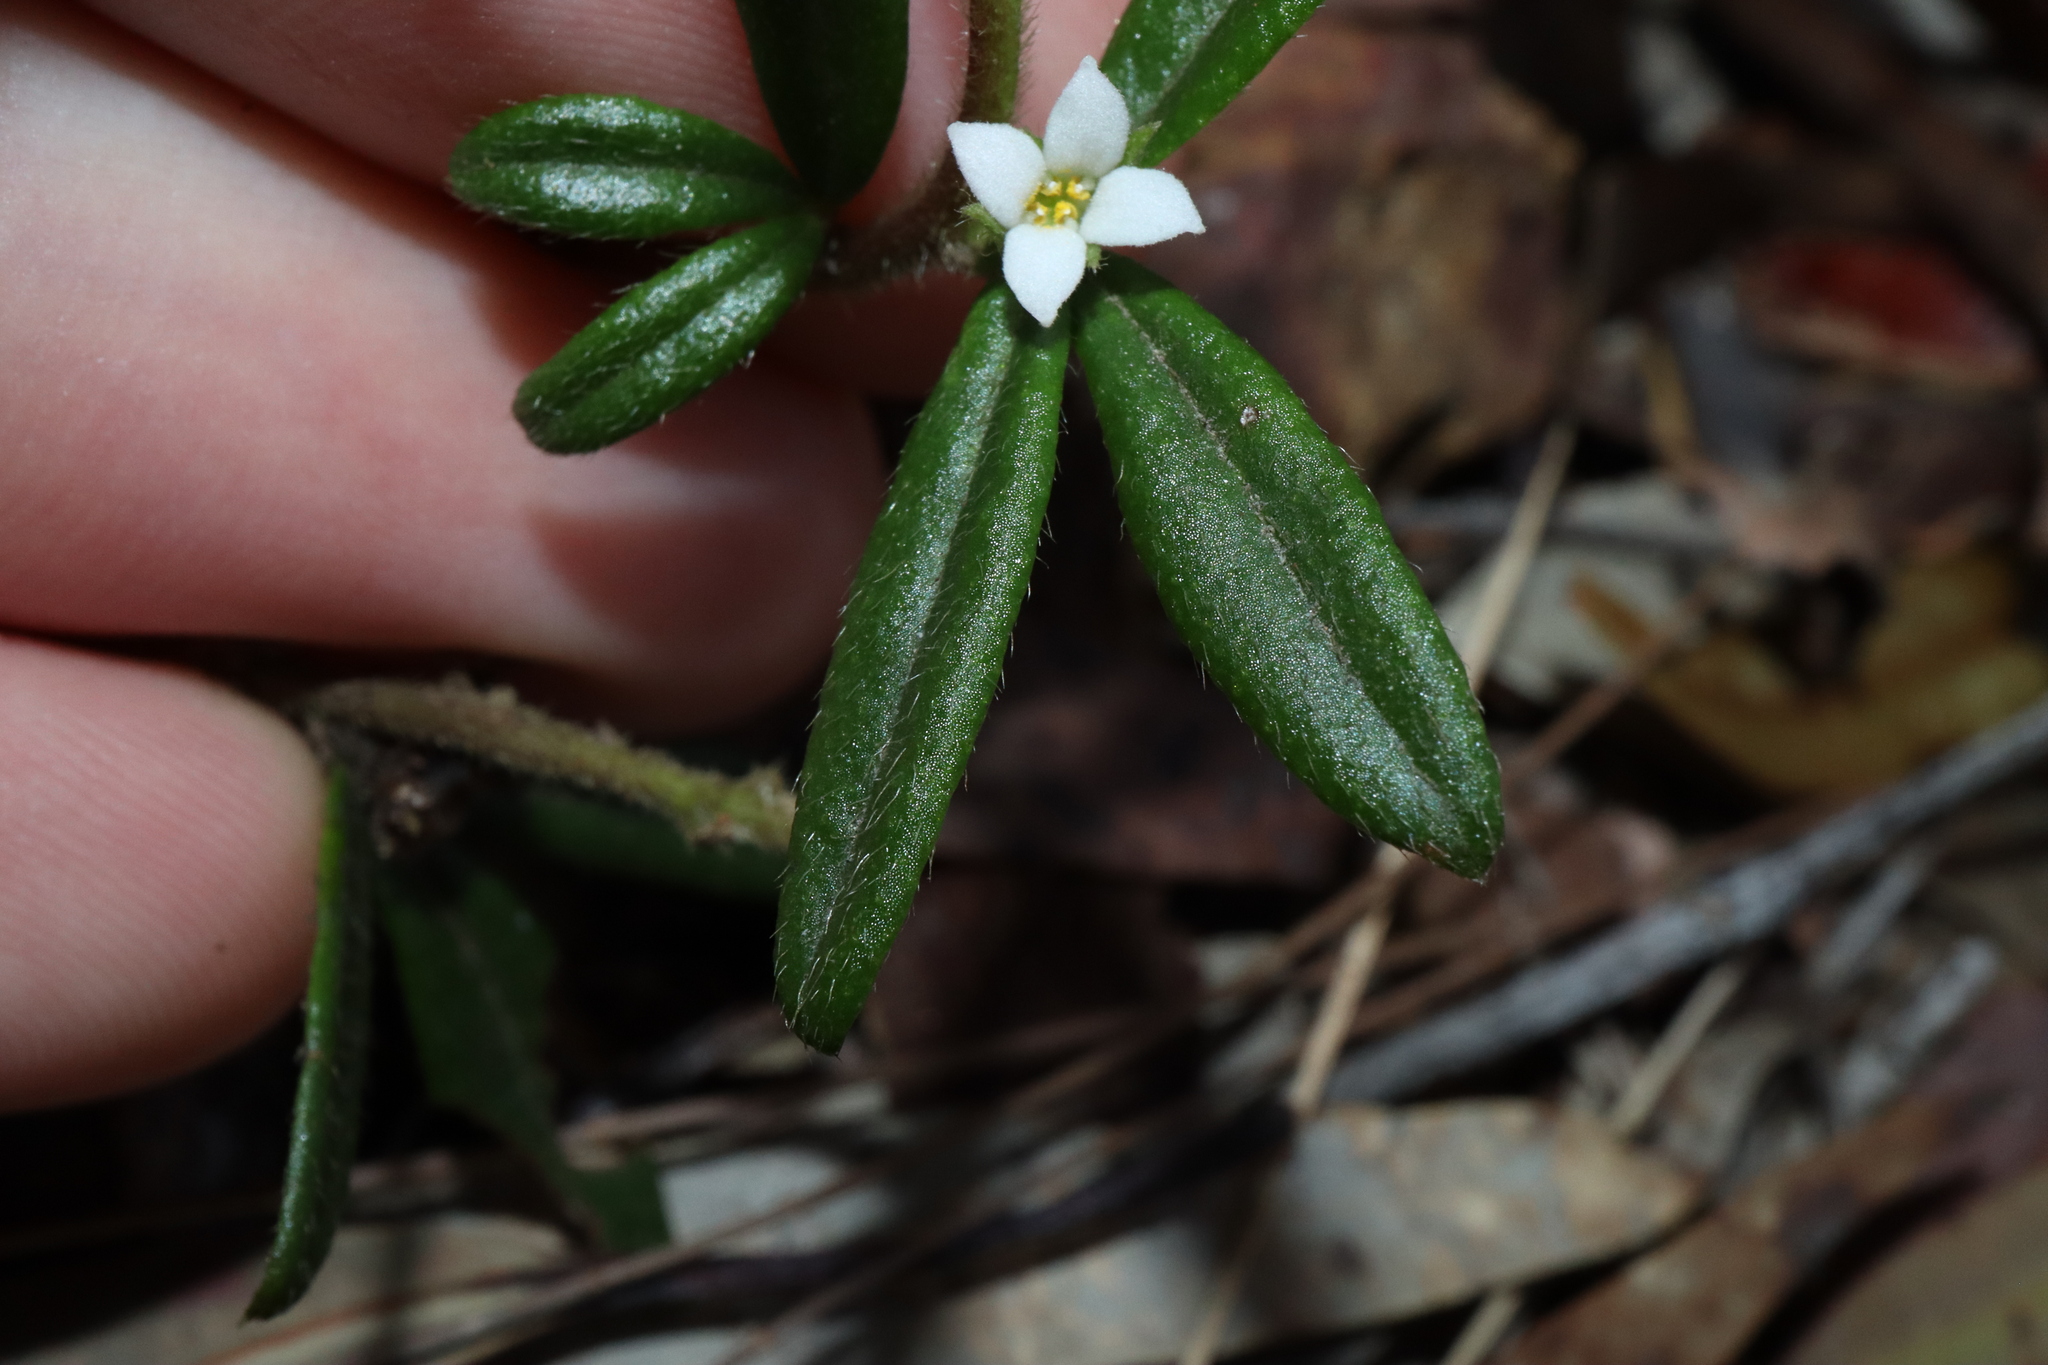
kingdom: Plantae
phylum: Tracheophyta
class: Magnoliopsida
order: Sapindales
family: Rutaceae
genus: Zieria
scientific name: Zieria pilosa
